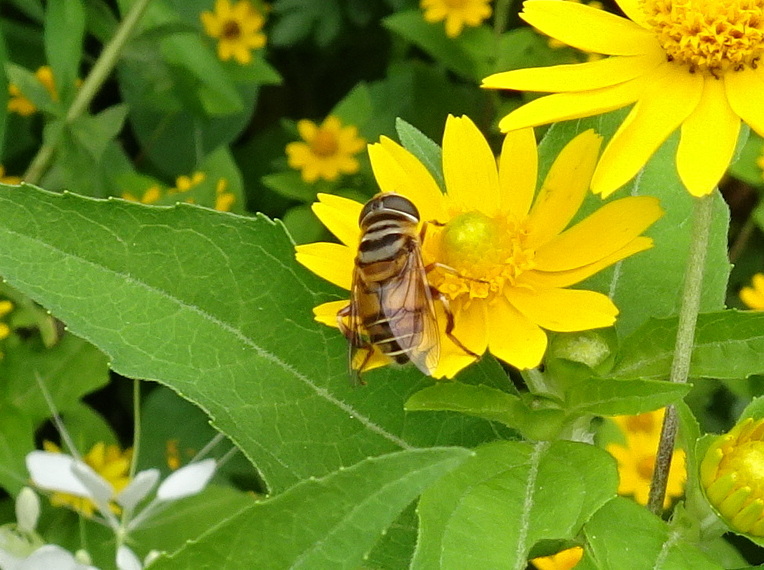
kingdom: Animalia
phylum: Arthropoda
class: Insecta
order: Diptera
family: Syrphidae
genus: Palpada
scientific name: Palpada vinetorum
